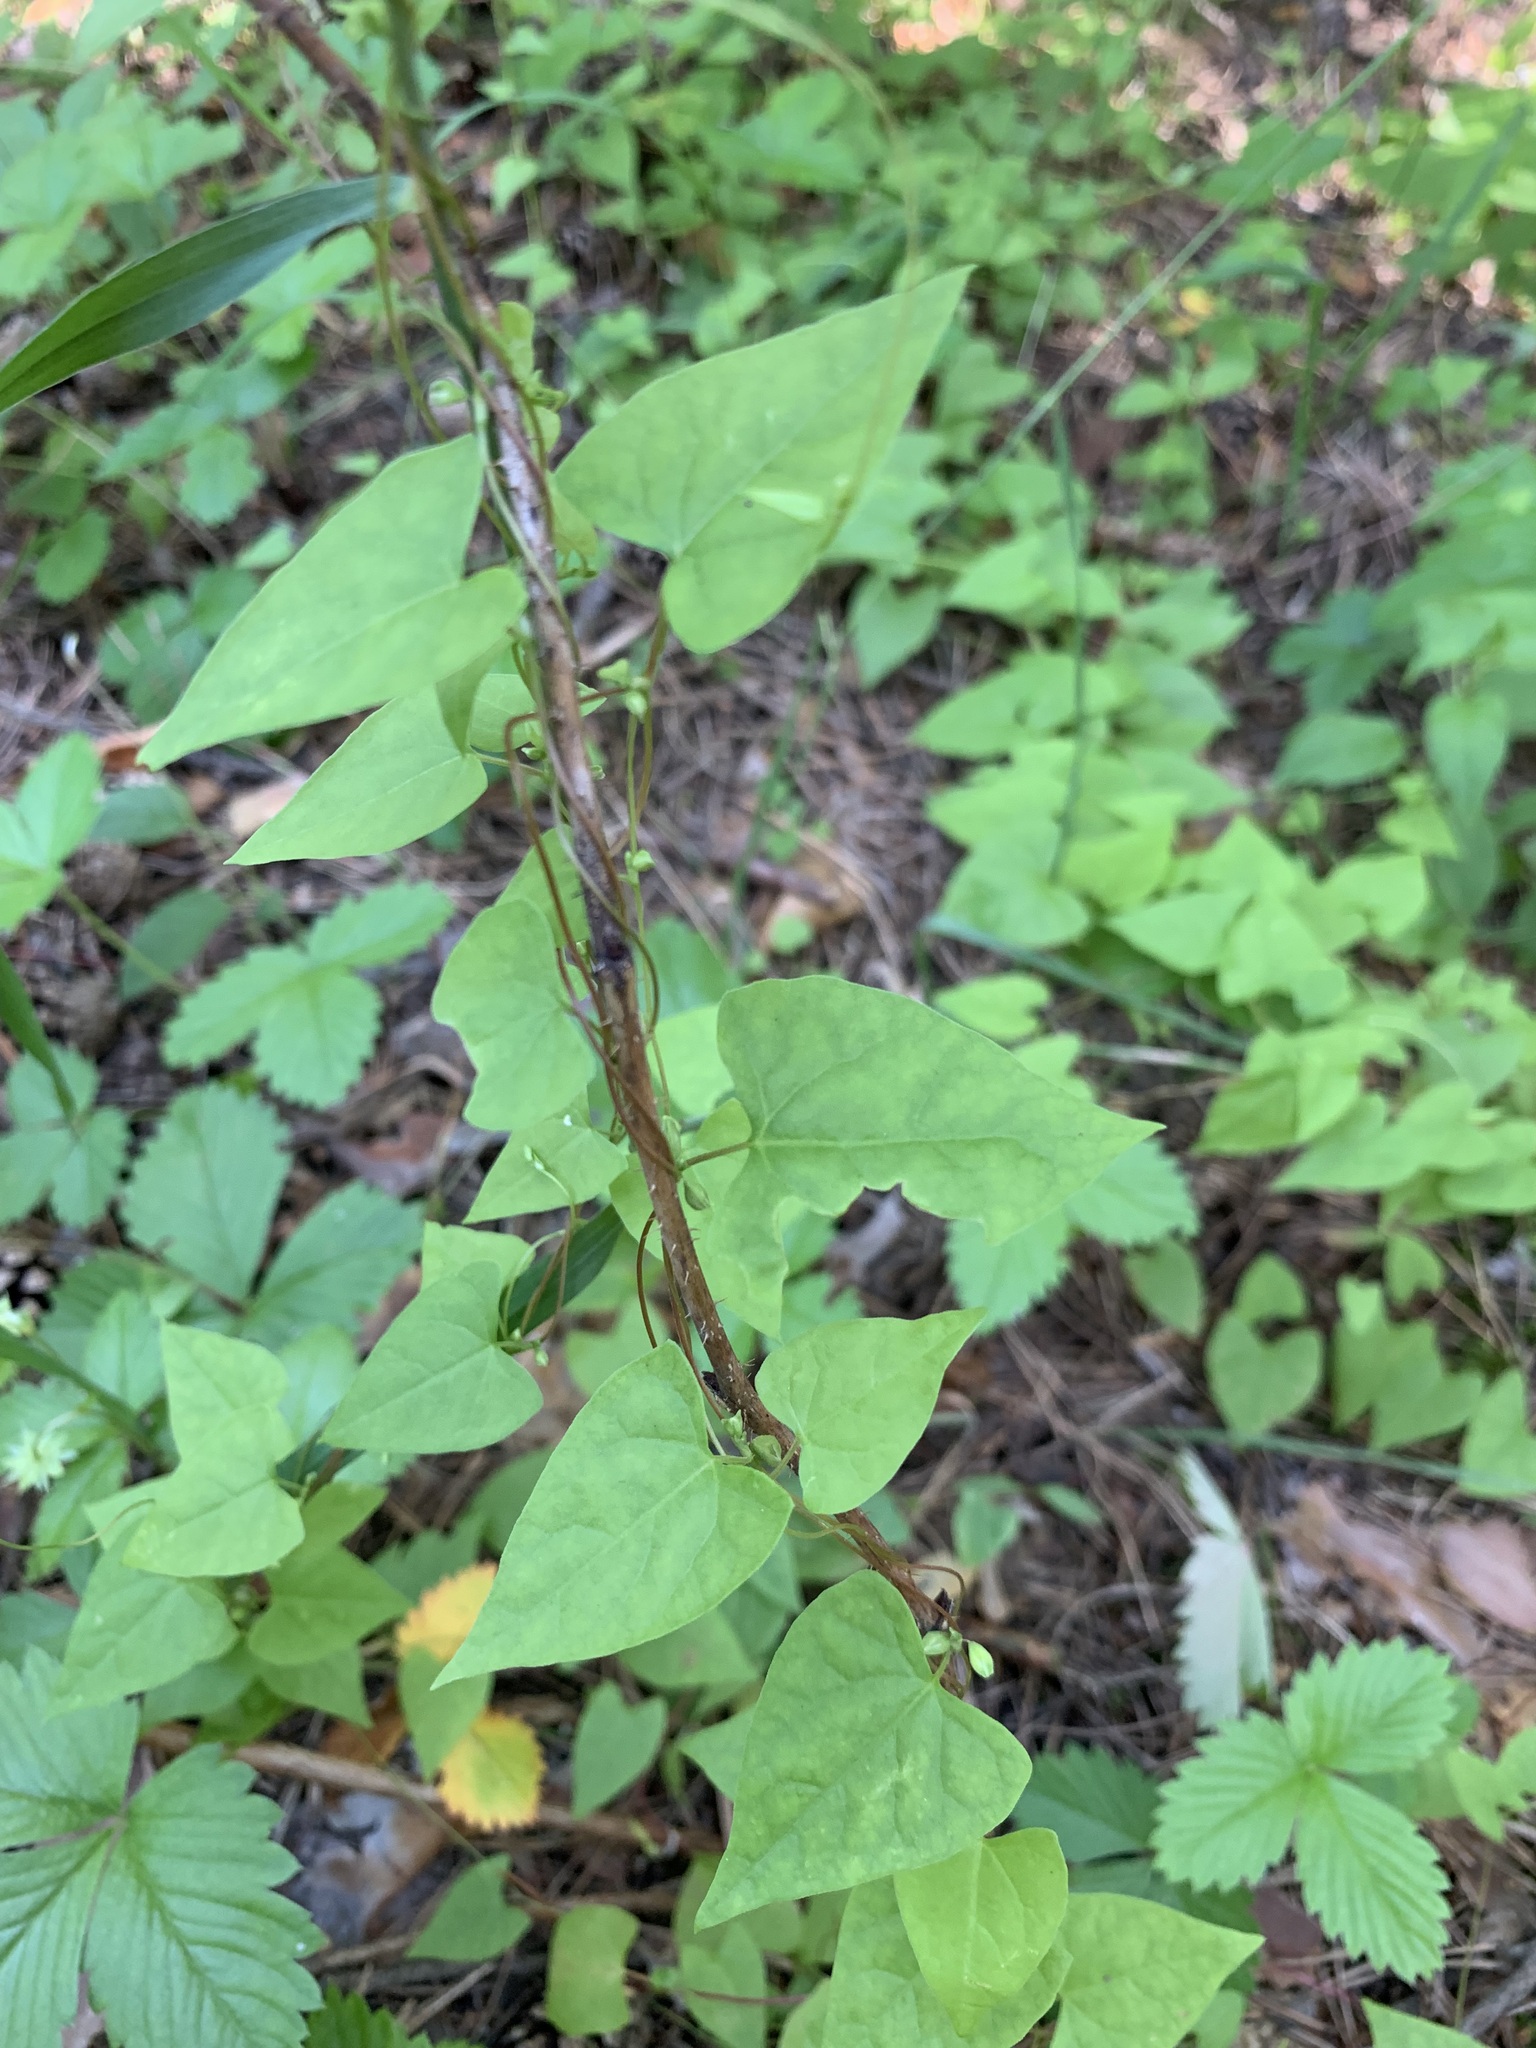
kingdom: Plantae
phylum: Tracheophyta
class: Magnoliopsida
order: Caryophyllales
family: Polygonaceae
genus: Fallopia
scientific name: Fallopia convolvulus
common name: Black bindweed
